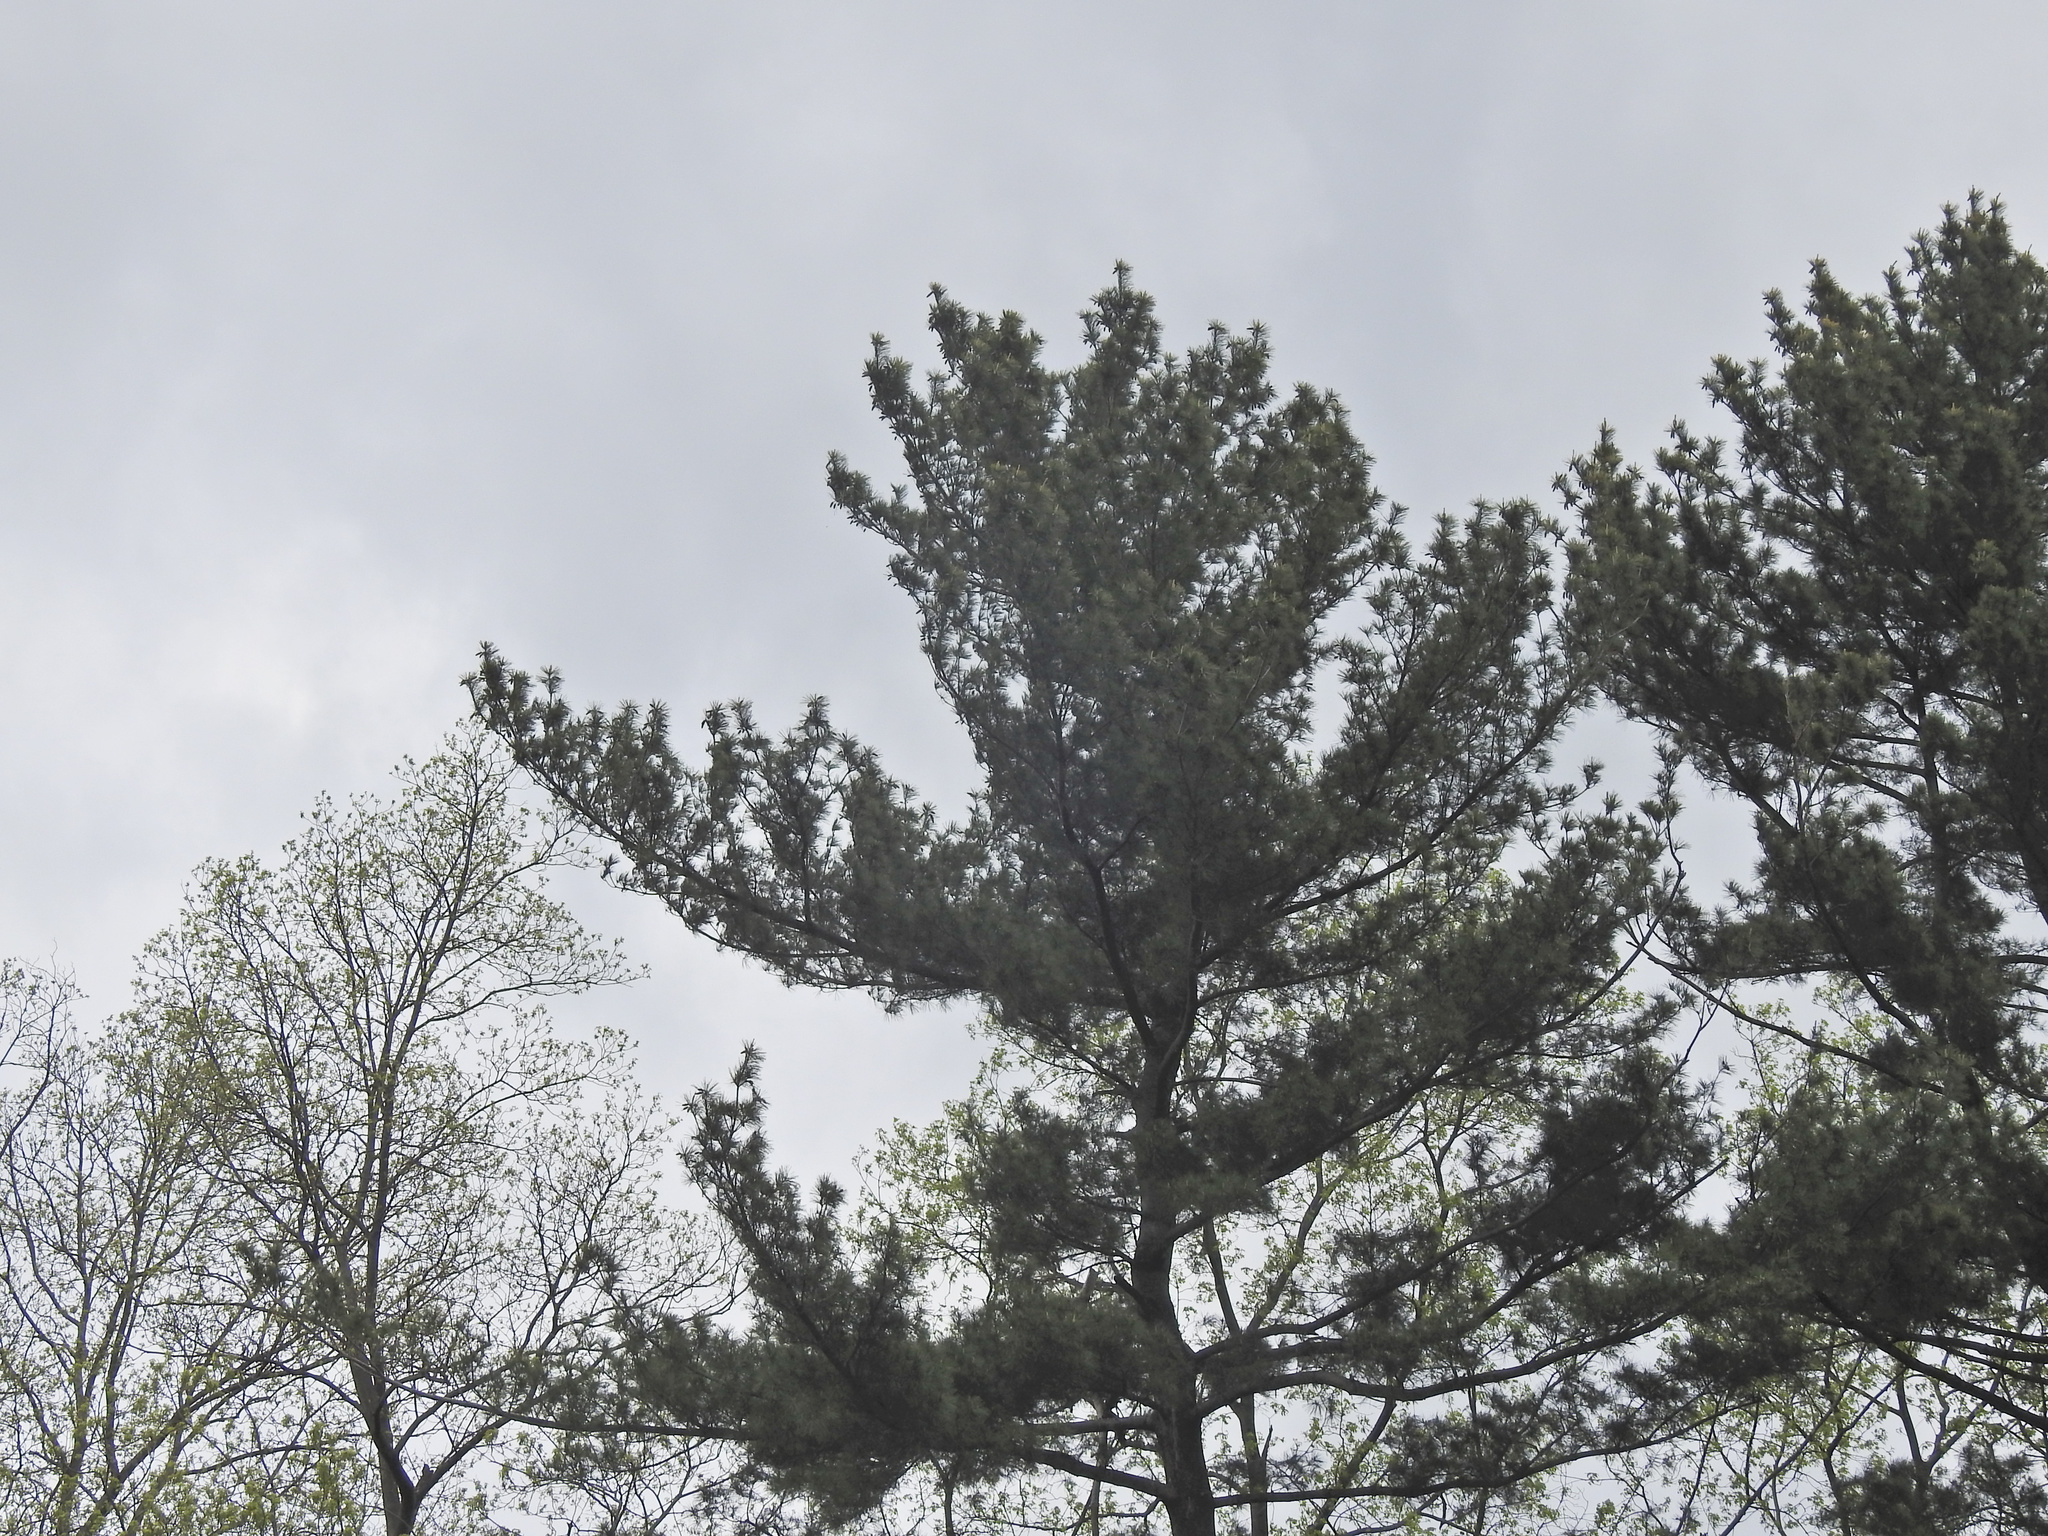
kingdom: Plantae
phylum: Tracheophyta
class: Pinopsida
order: Pinales
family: Pinaceae
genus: Pinus
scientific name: Pinus strobus
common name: Weymouth pine
